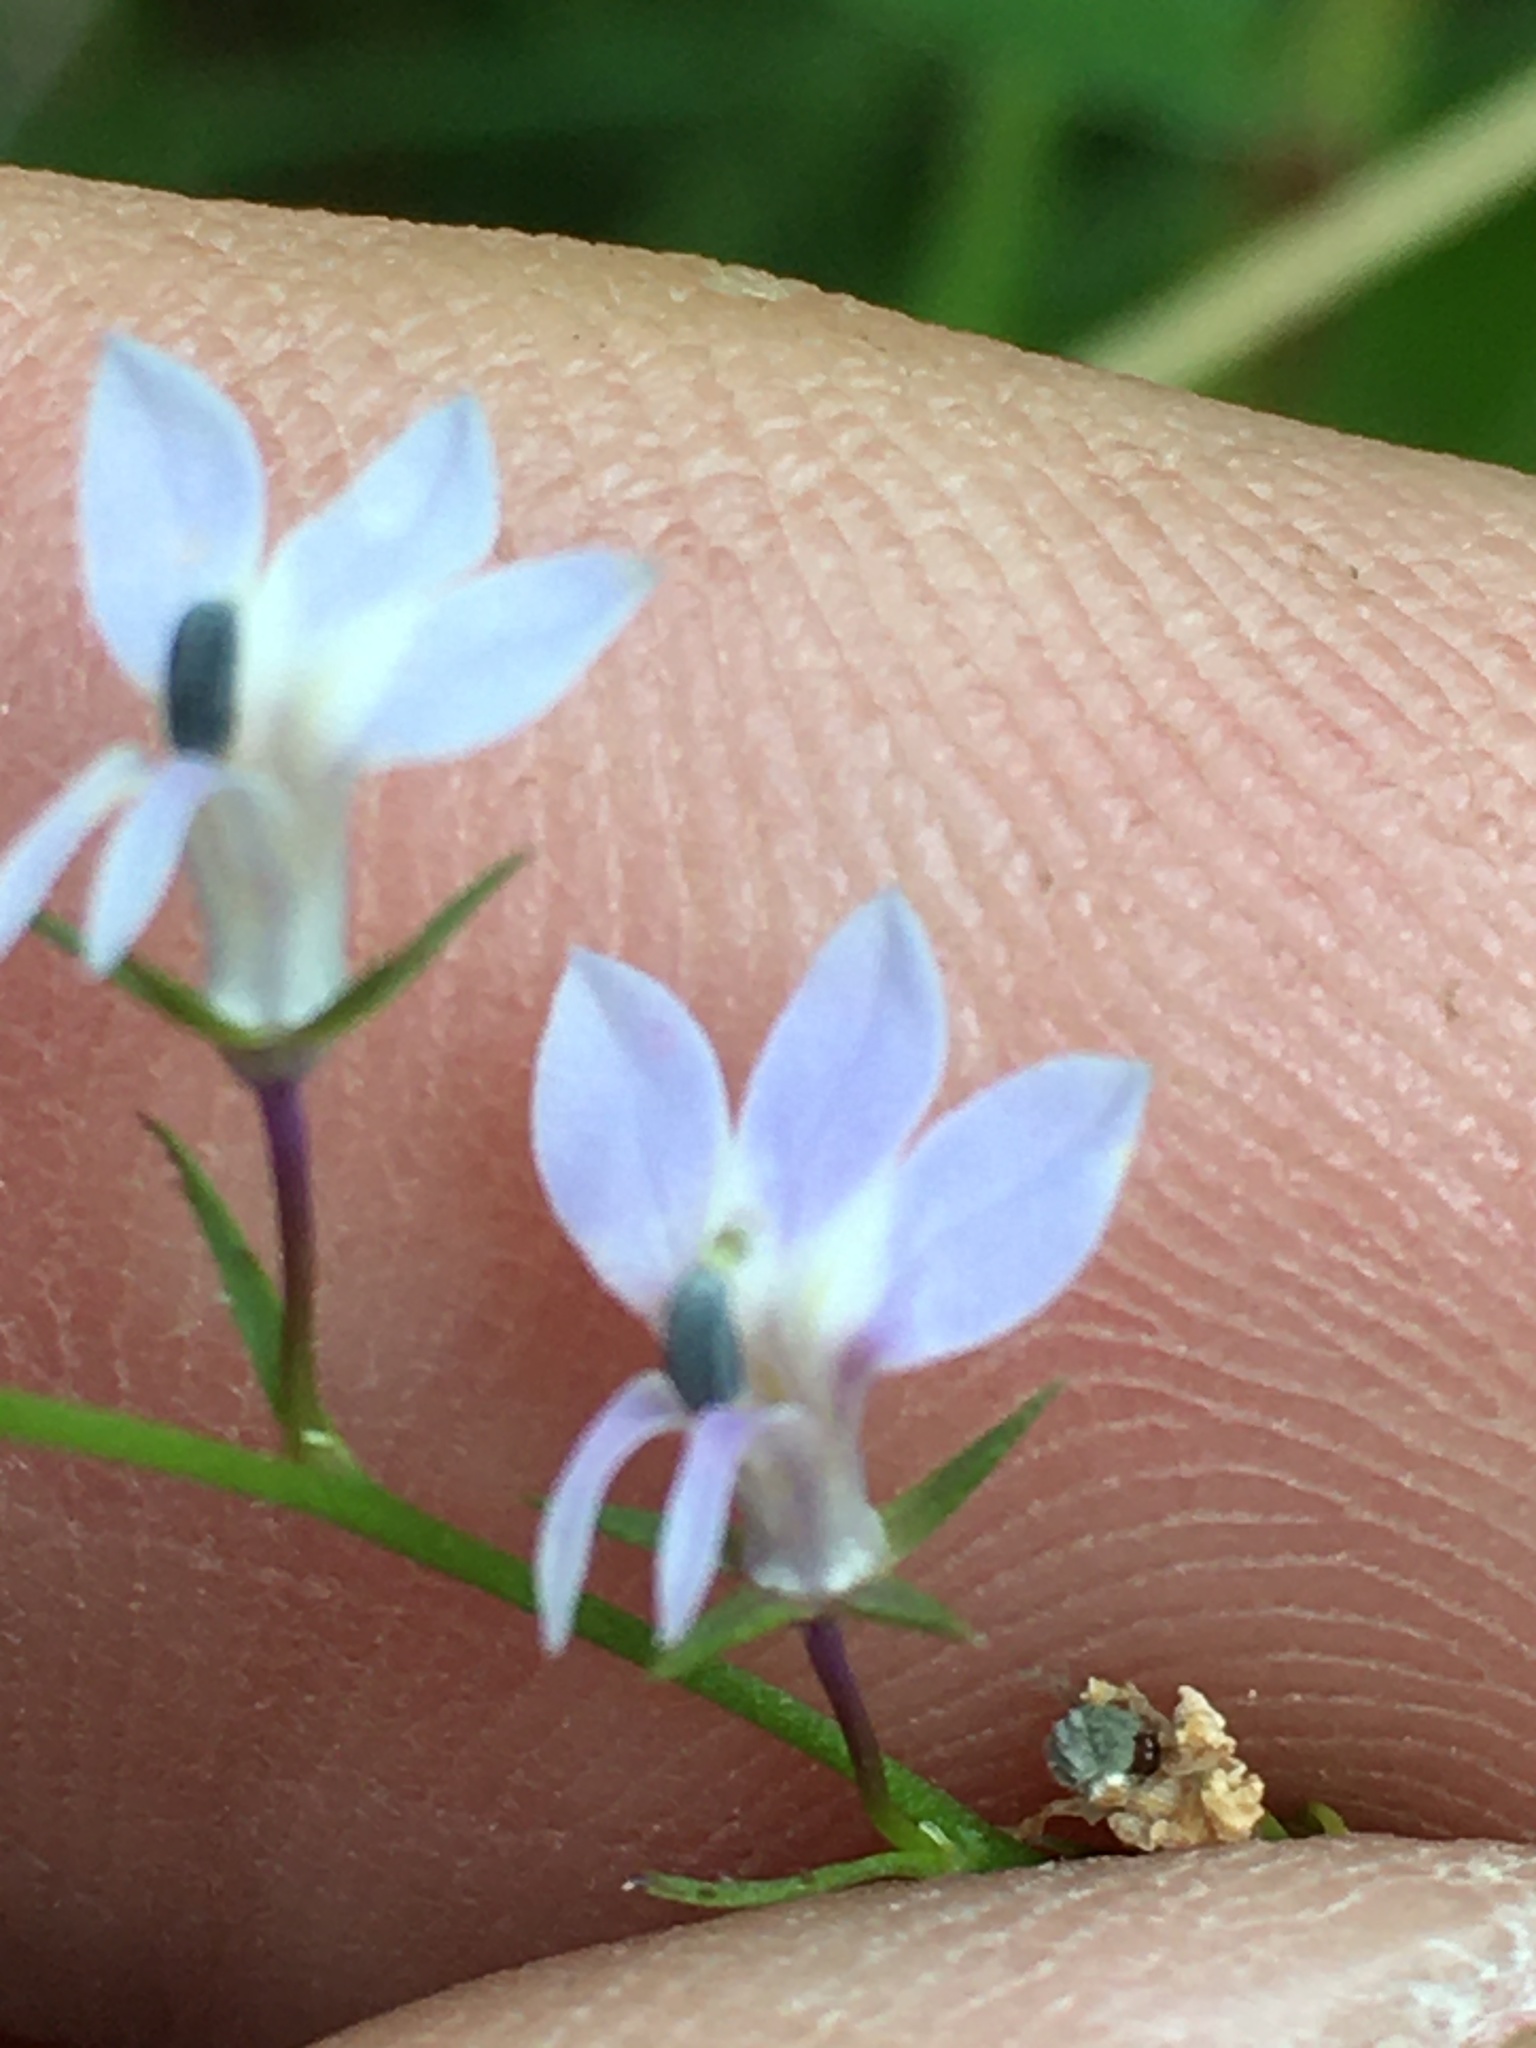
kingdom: Plantae
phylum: Tracheophyta
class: Magnoliopsida
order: Asterales
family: Campanulaceae
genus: Lobelia
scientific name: Lobelia nuttallii
